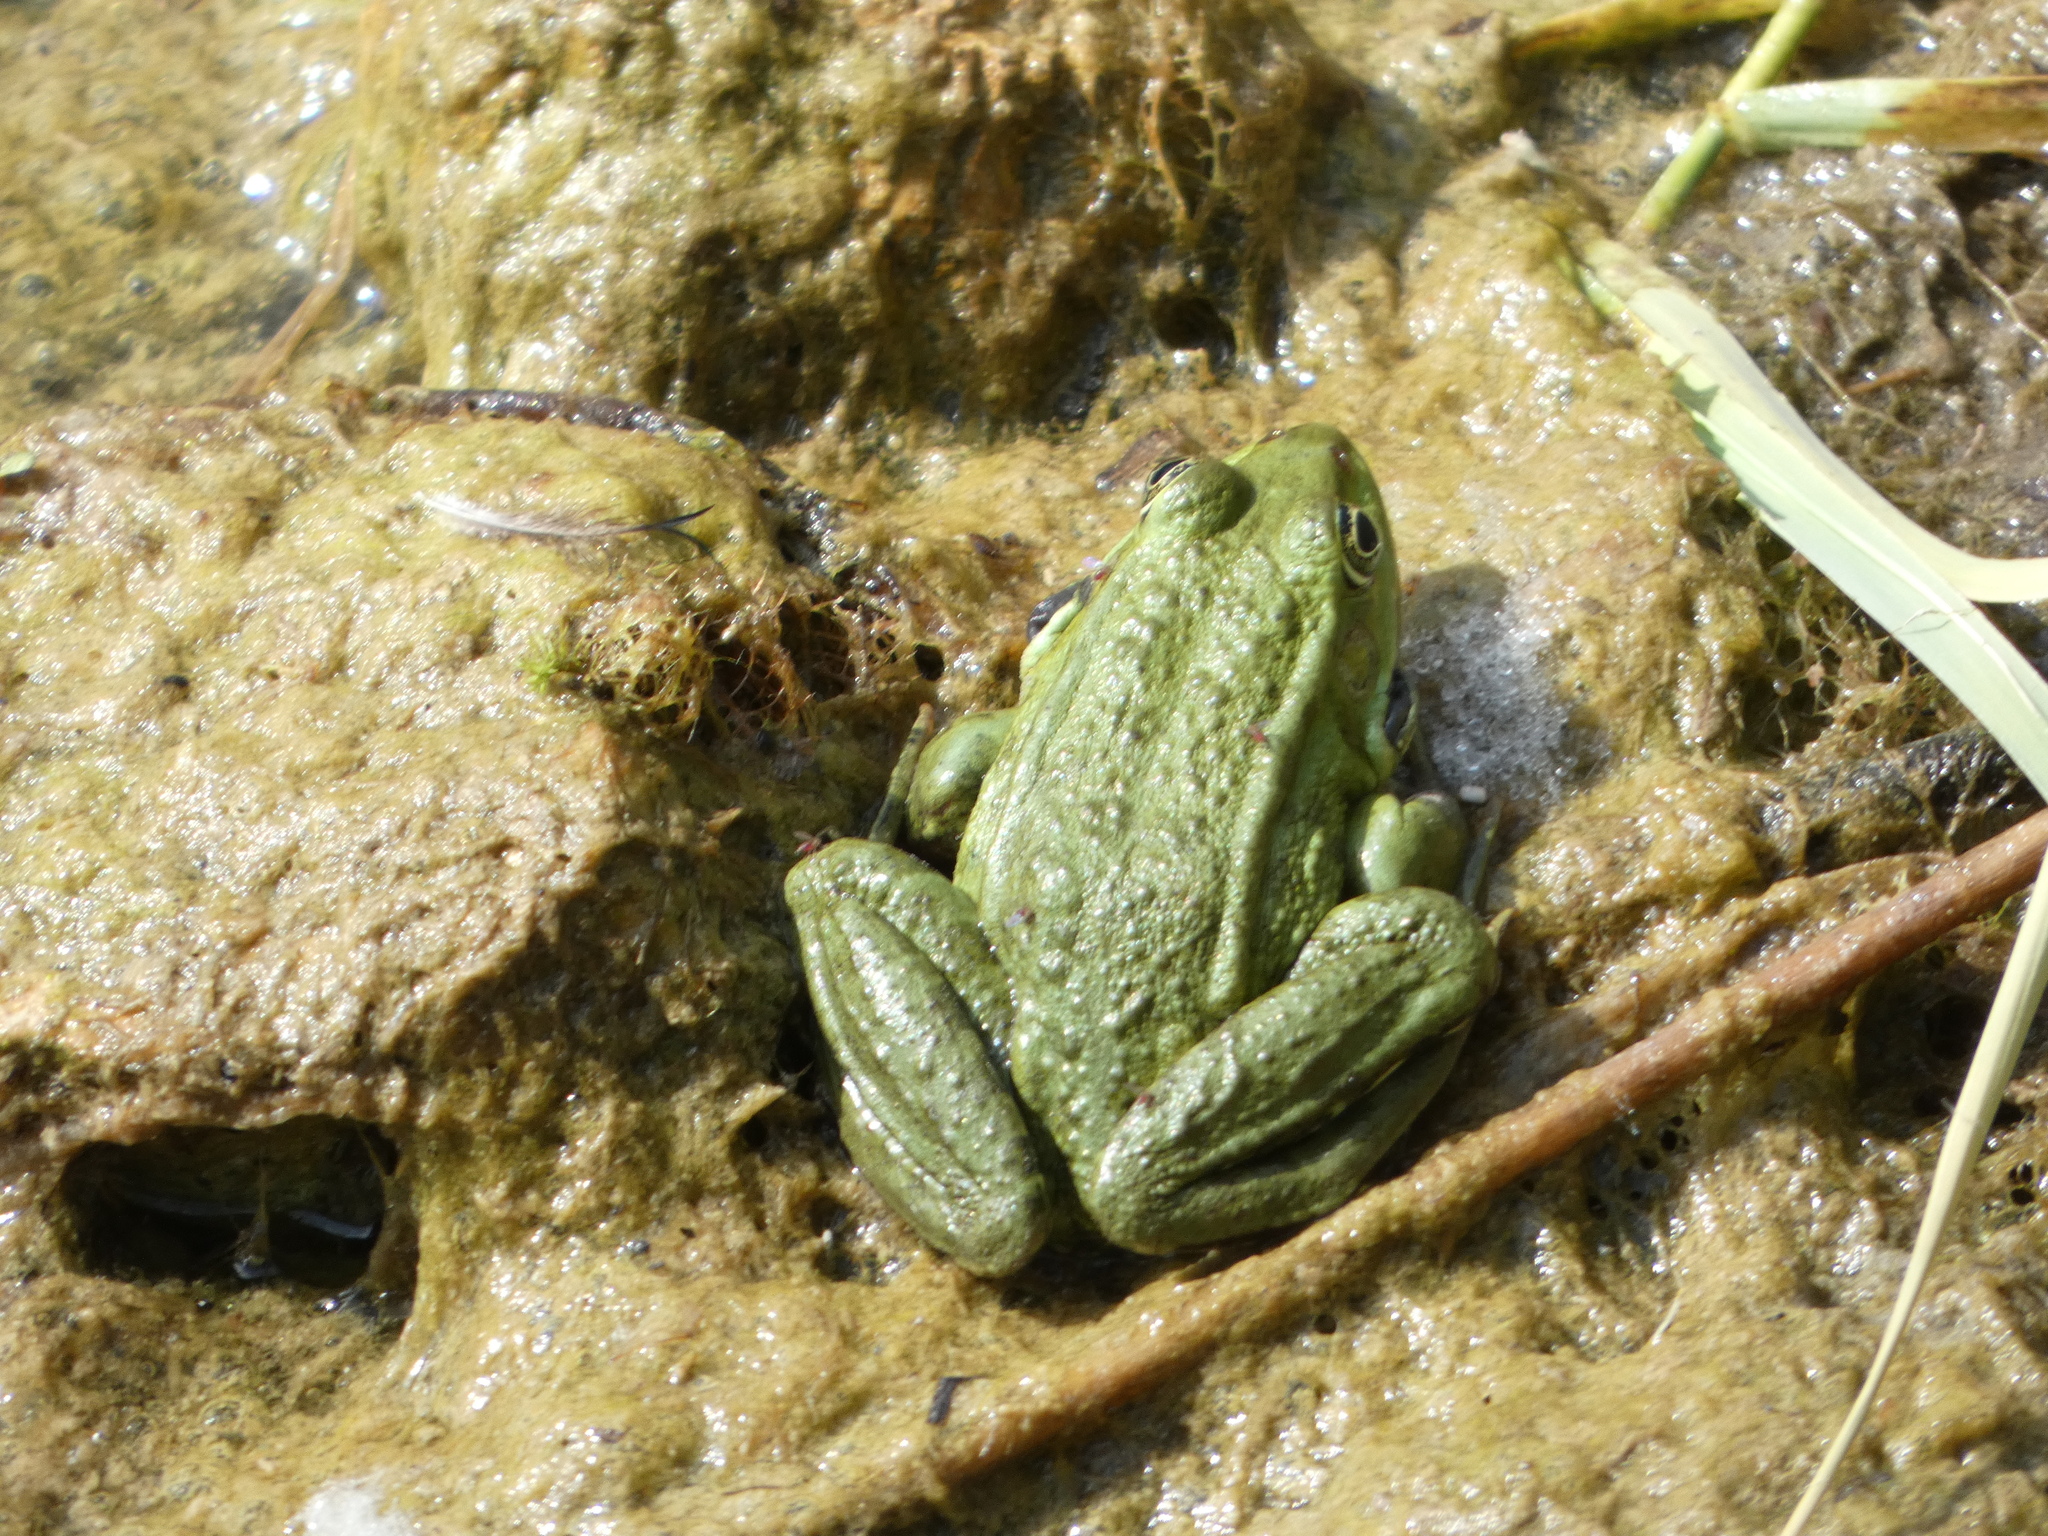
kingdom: Animalia
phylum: Chordata
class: Amphibia
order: Anura
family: Ranidae
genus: Pelophylax
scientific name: Pelophylax
